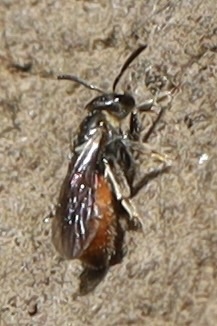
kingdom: Animalia
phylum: Arthropoda
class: Insecta
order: Hymenoptera
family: Halictidae
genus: Lasioglossum
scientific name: Lasioglossum ovaliceps
